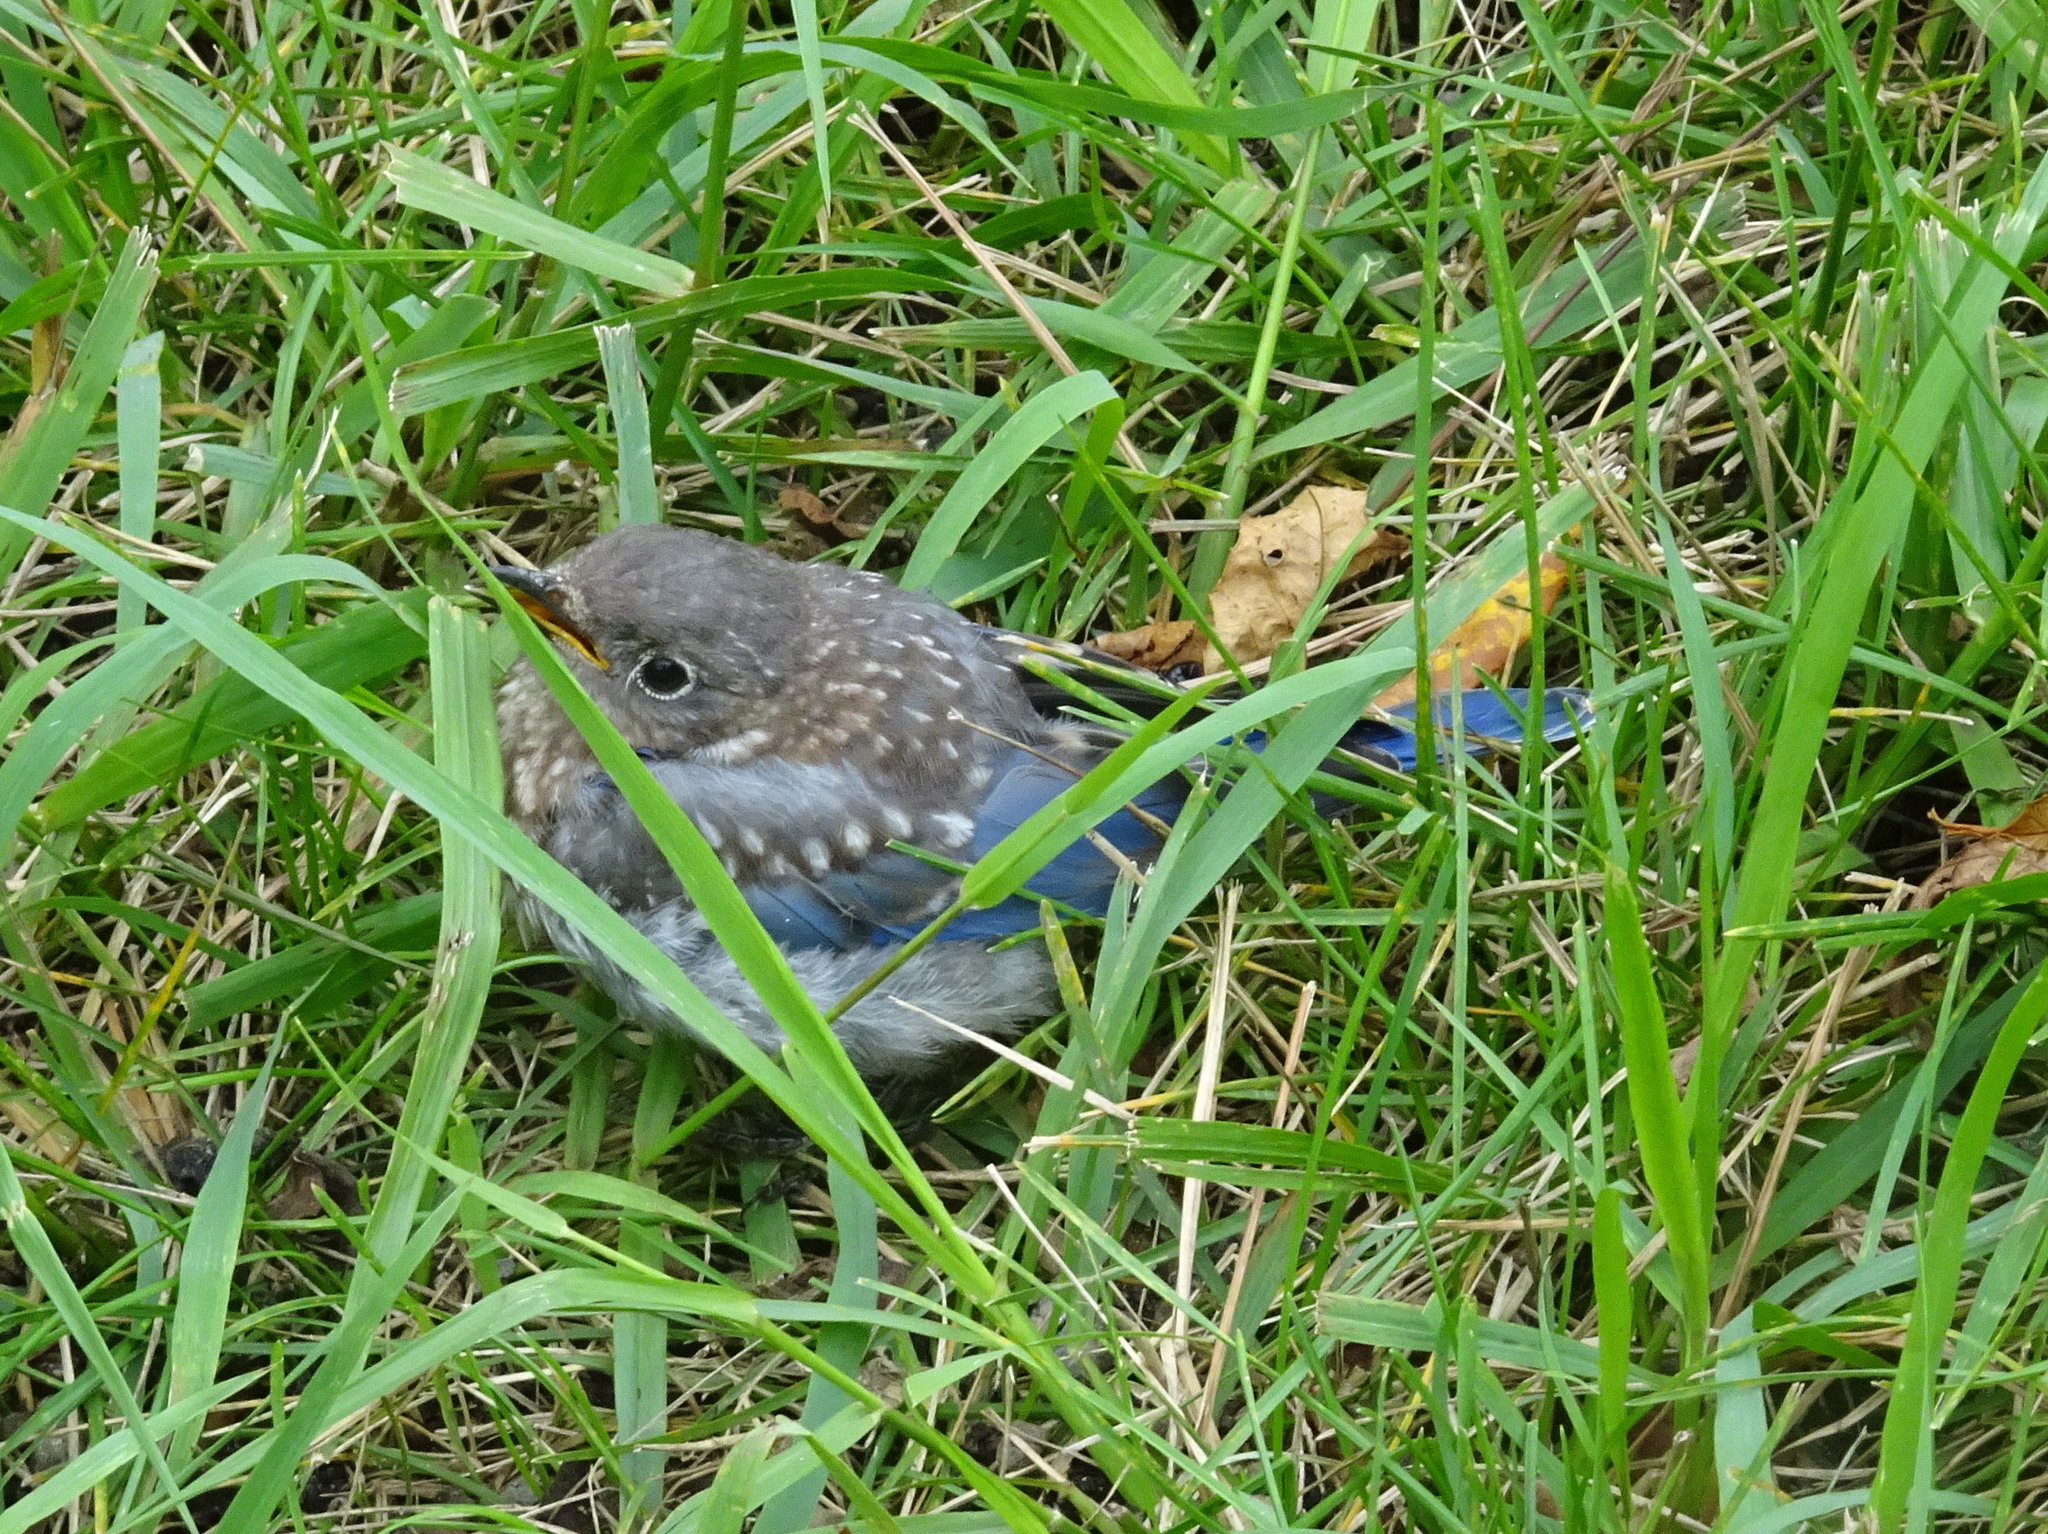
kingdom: Animalia
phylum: Chordata
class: Aves
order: Passeriformes
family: Turdidae
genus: Sialia
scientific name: Sialia sialis
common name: Eastern bluebird
